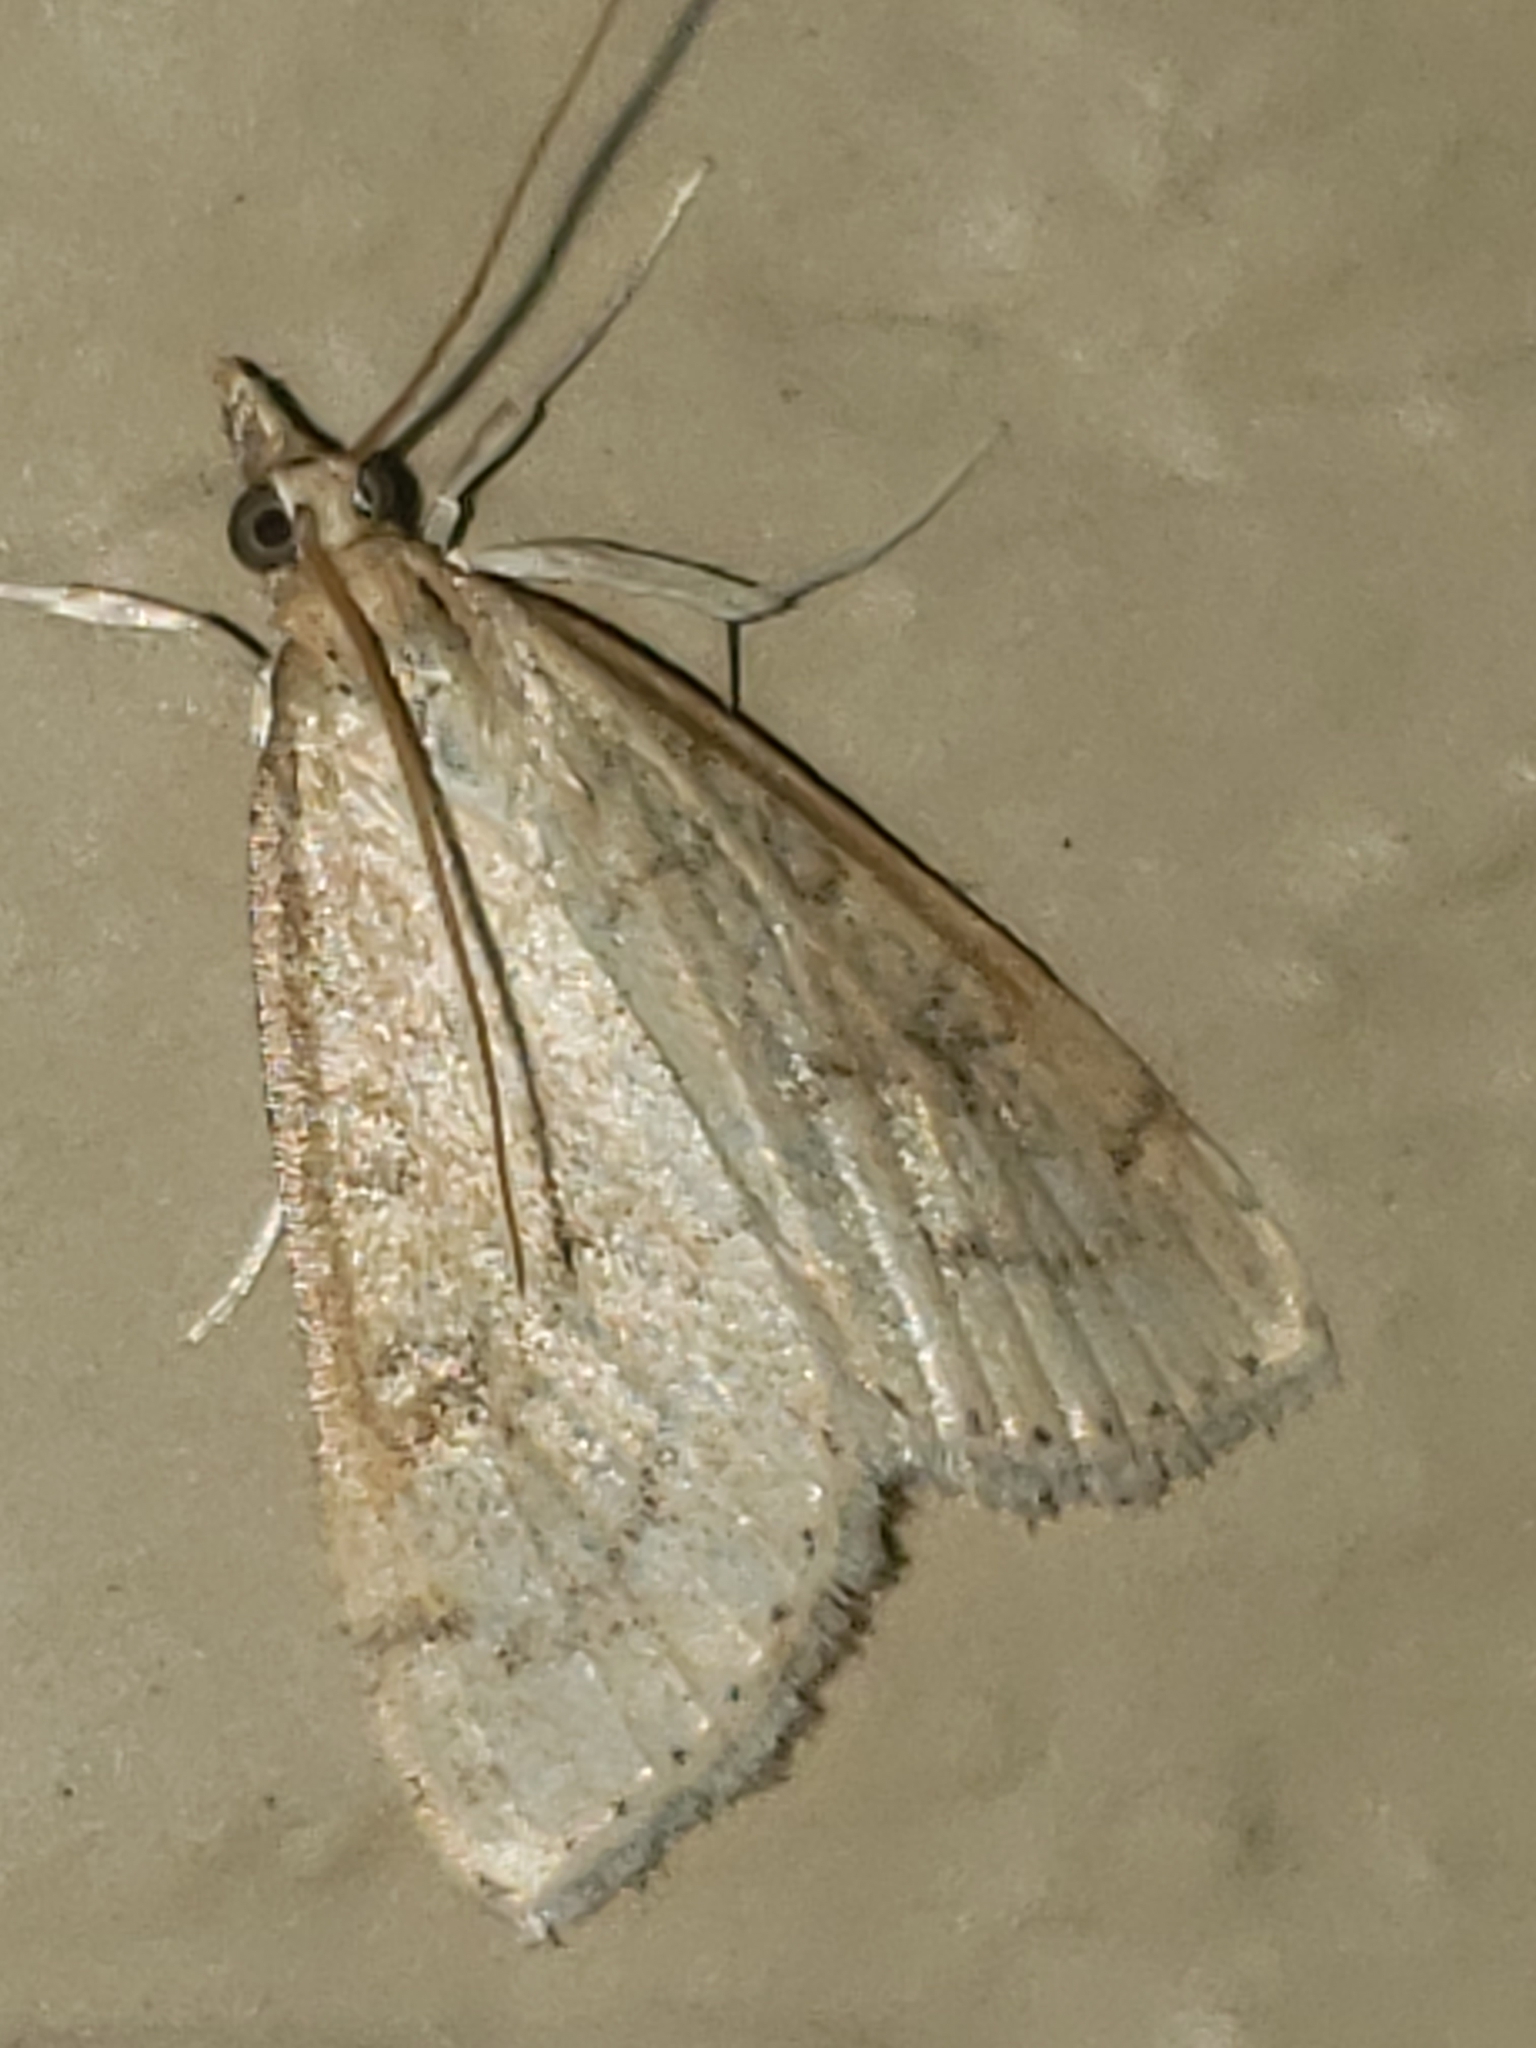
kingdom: Animalia
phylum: Arthropoda
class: Insecta
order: Lepidoptera
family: Crambidae
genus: Udea
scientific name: Udea rubigalis
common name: Celery leaftier moth
